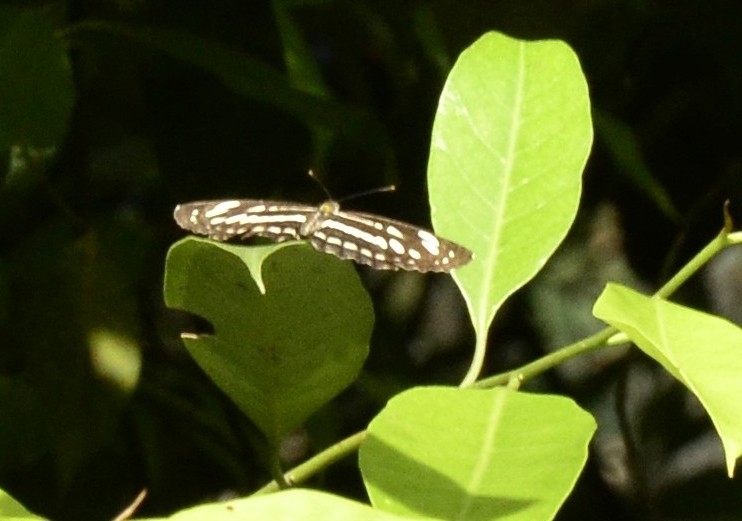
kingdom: Animalia
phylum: Arthropoda
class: Insecta
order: Lepidoptera
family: Nymphalidae
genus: Neptis
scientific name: Neptis hylas
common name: Common sailer
